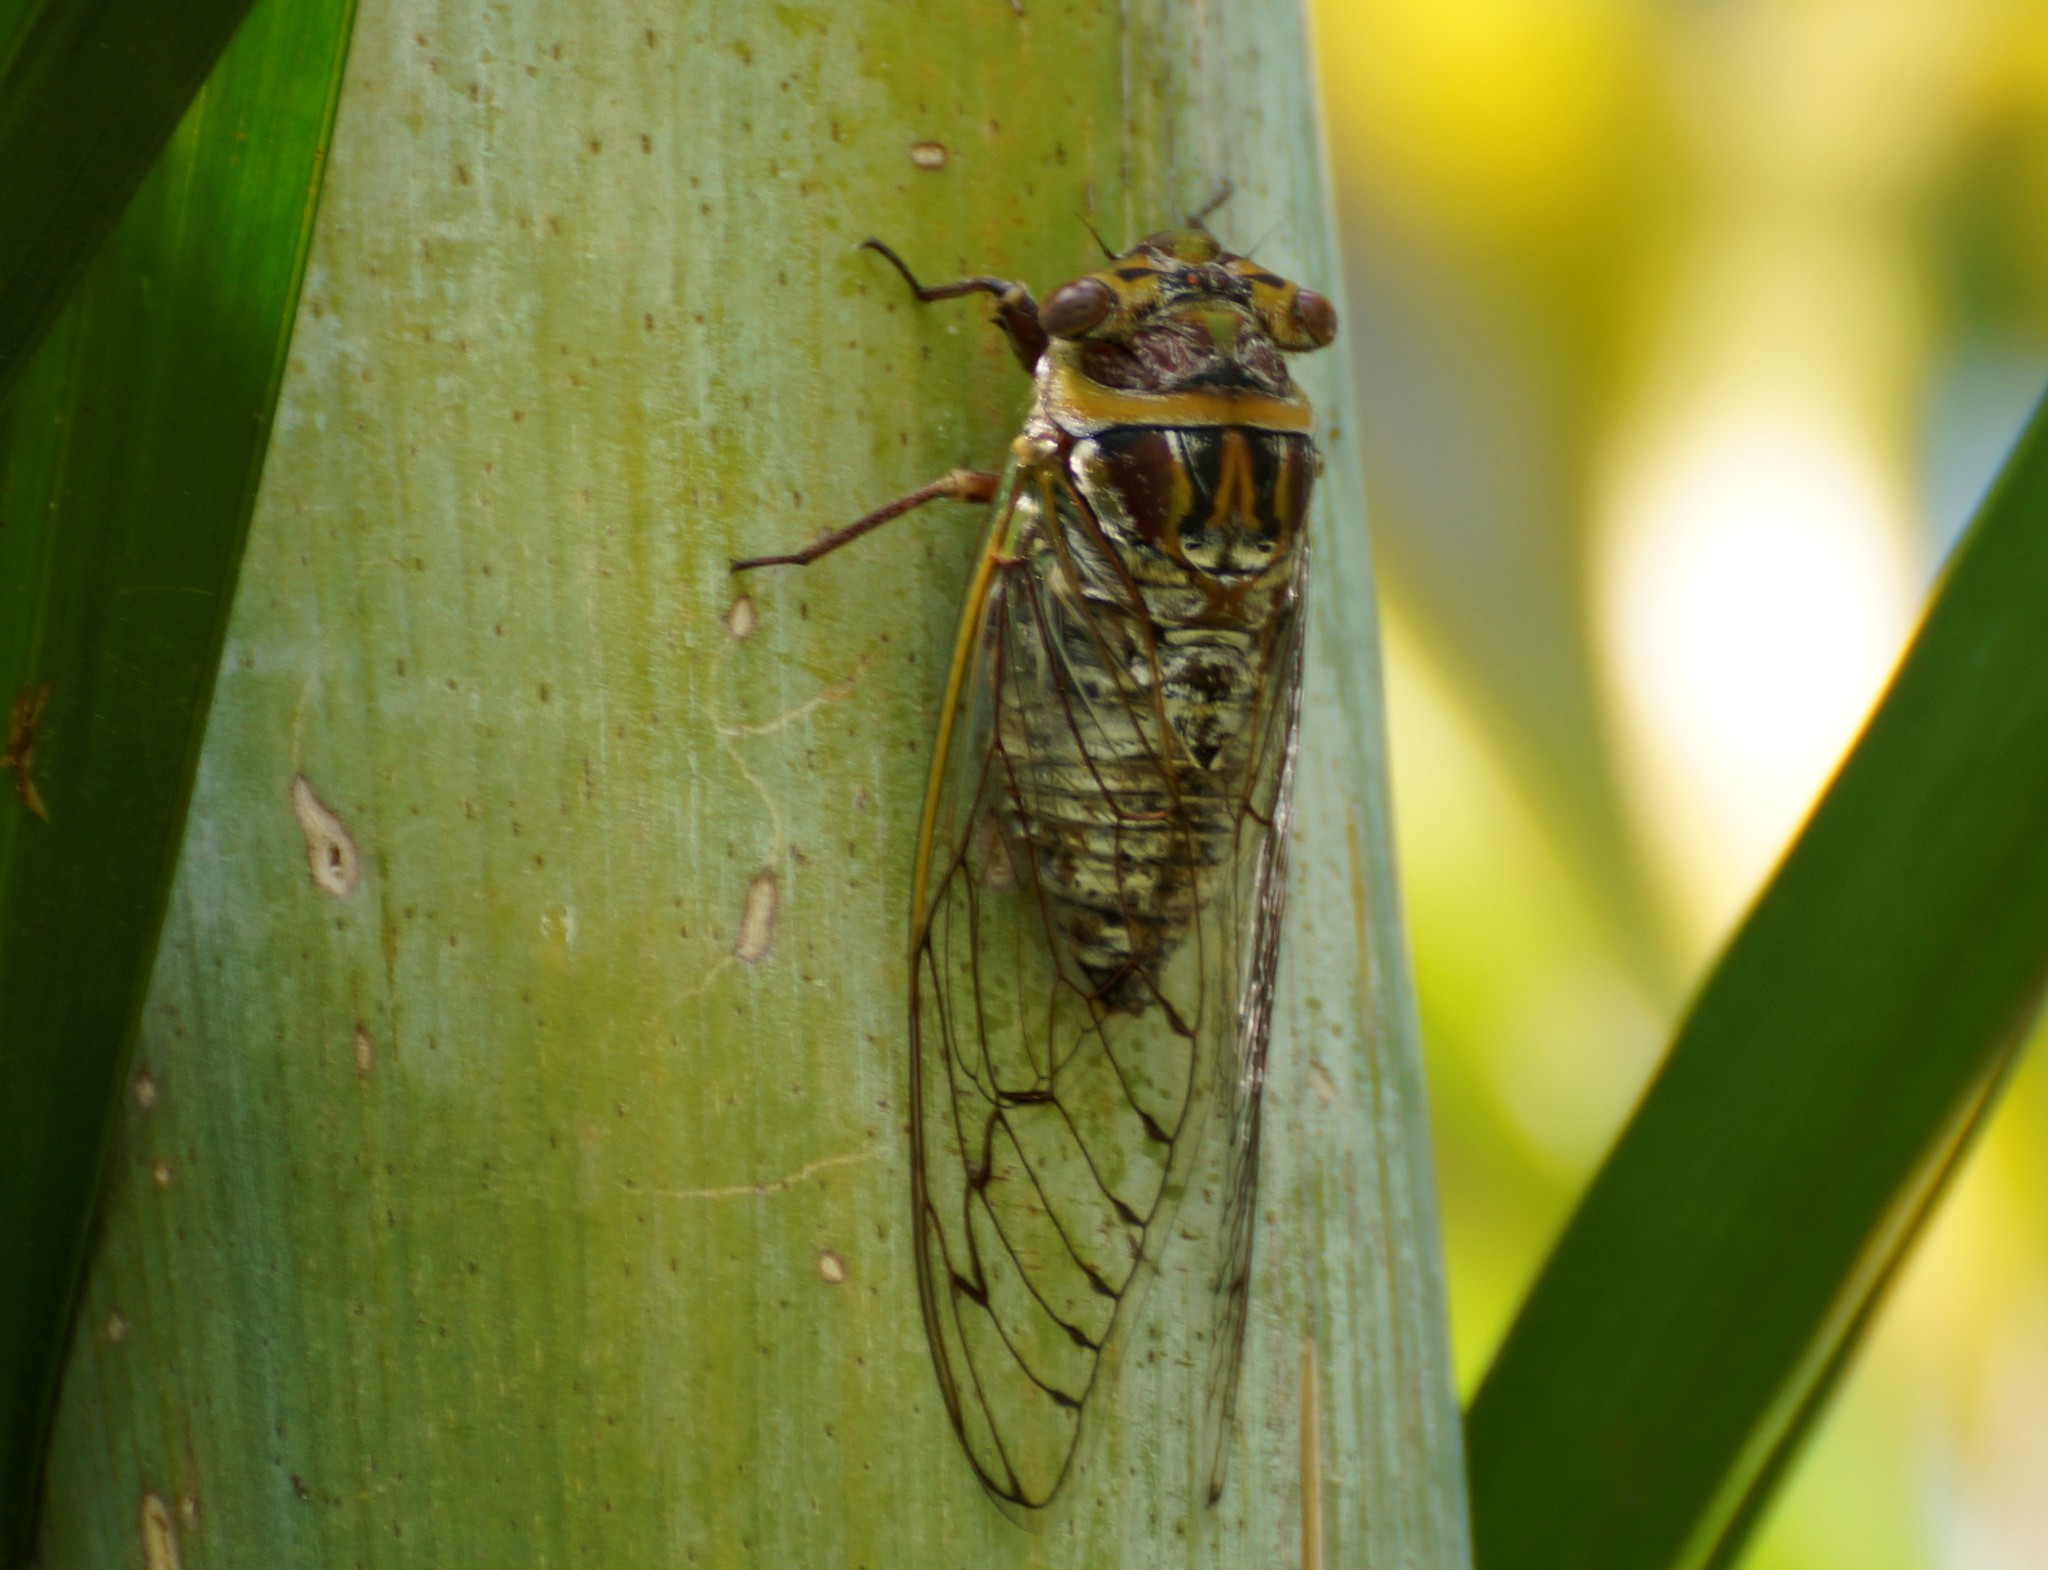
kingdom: Animalia
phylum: Arthropoda
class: Insecta
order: Hemiptera
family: Cicadidae
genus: Macrotristria
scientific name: Macrotristria doddi
